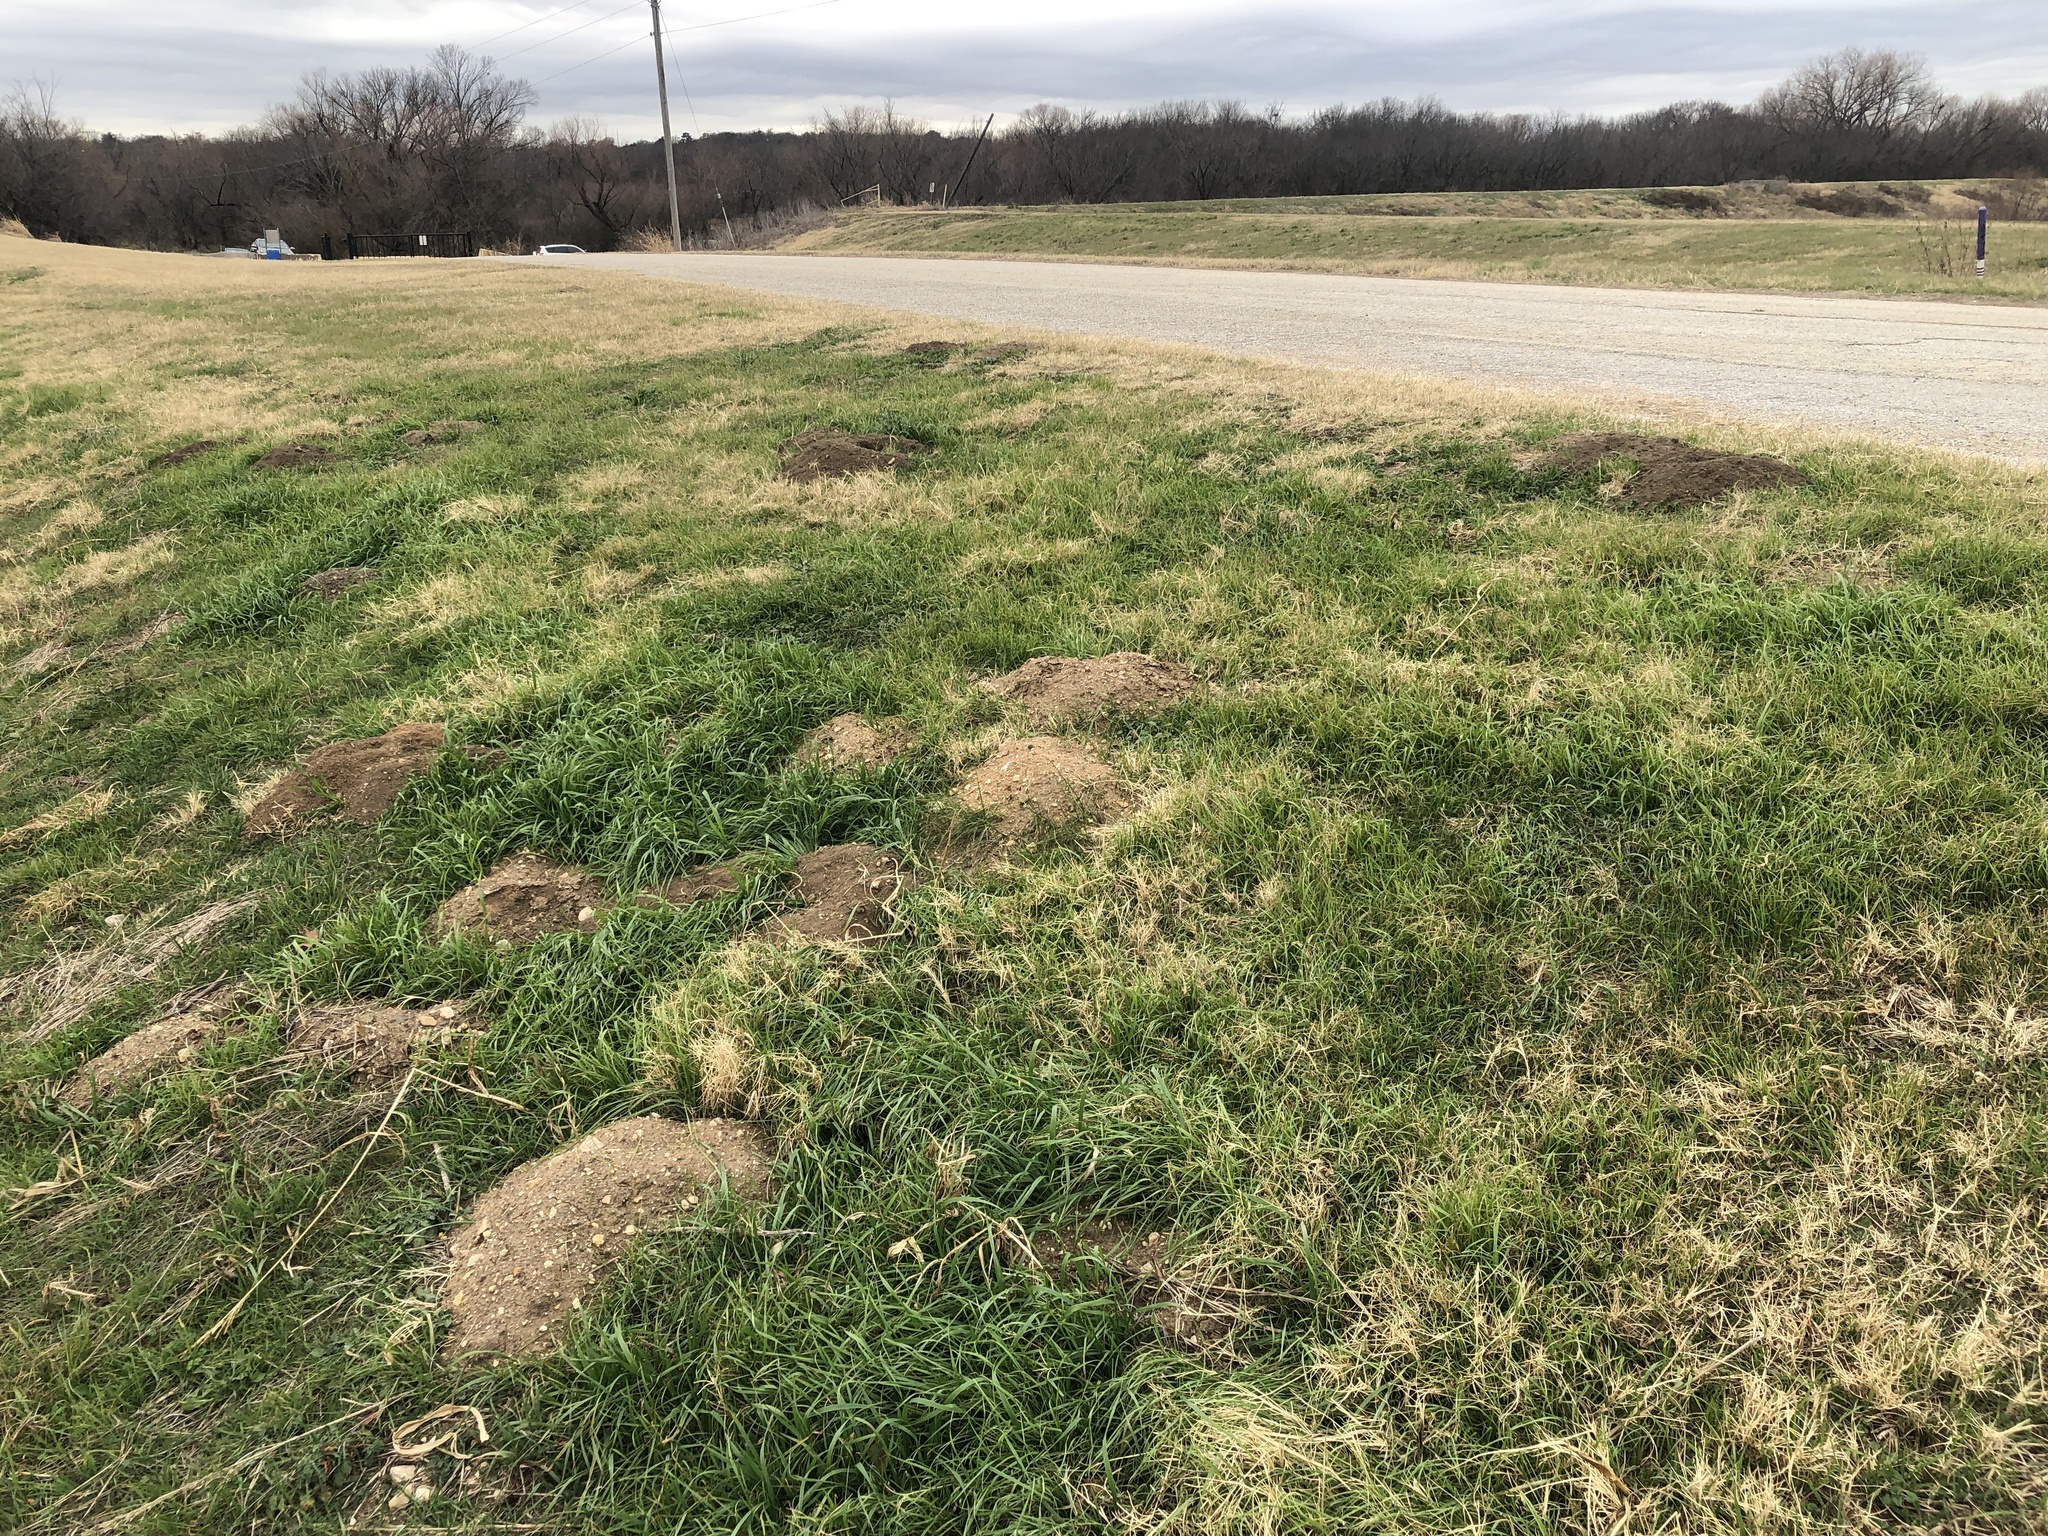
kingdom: Animalia
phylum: Chordata
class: Mammalia
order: Rodentia
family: Geomyidae
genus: Geomys
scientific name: Geomys bursarius
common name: Plains pocket gopher
